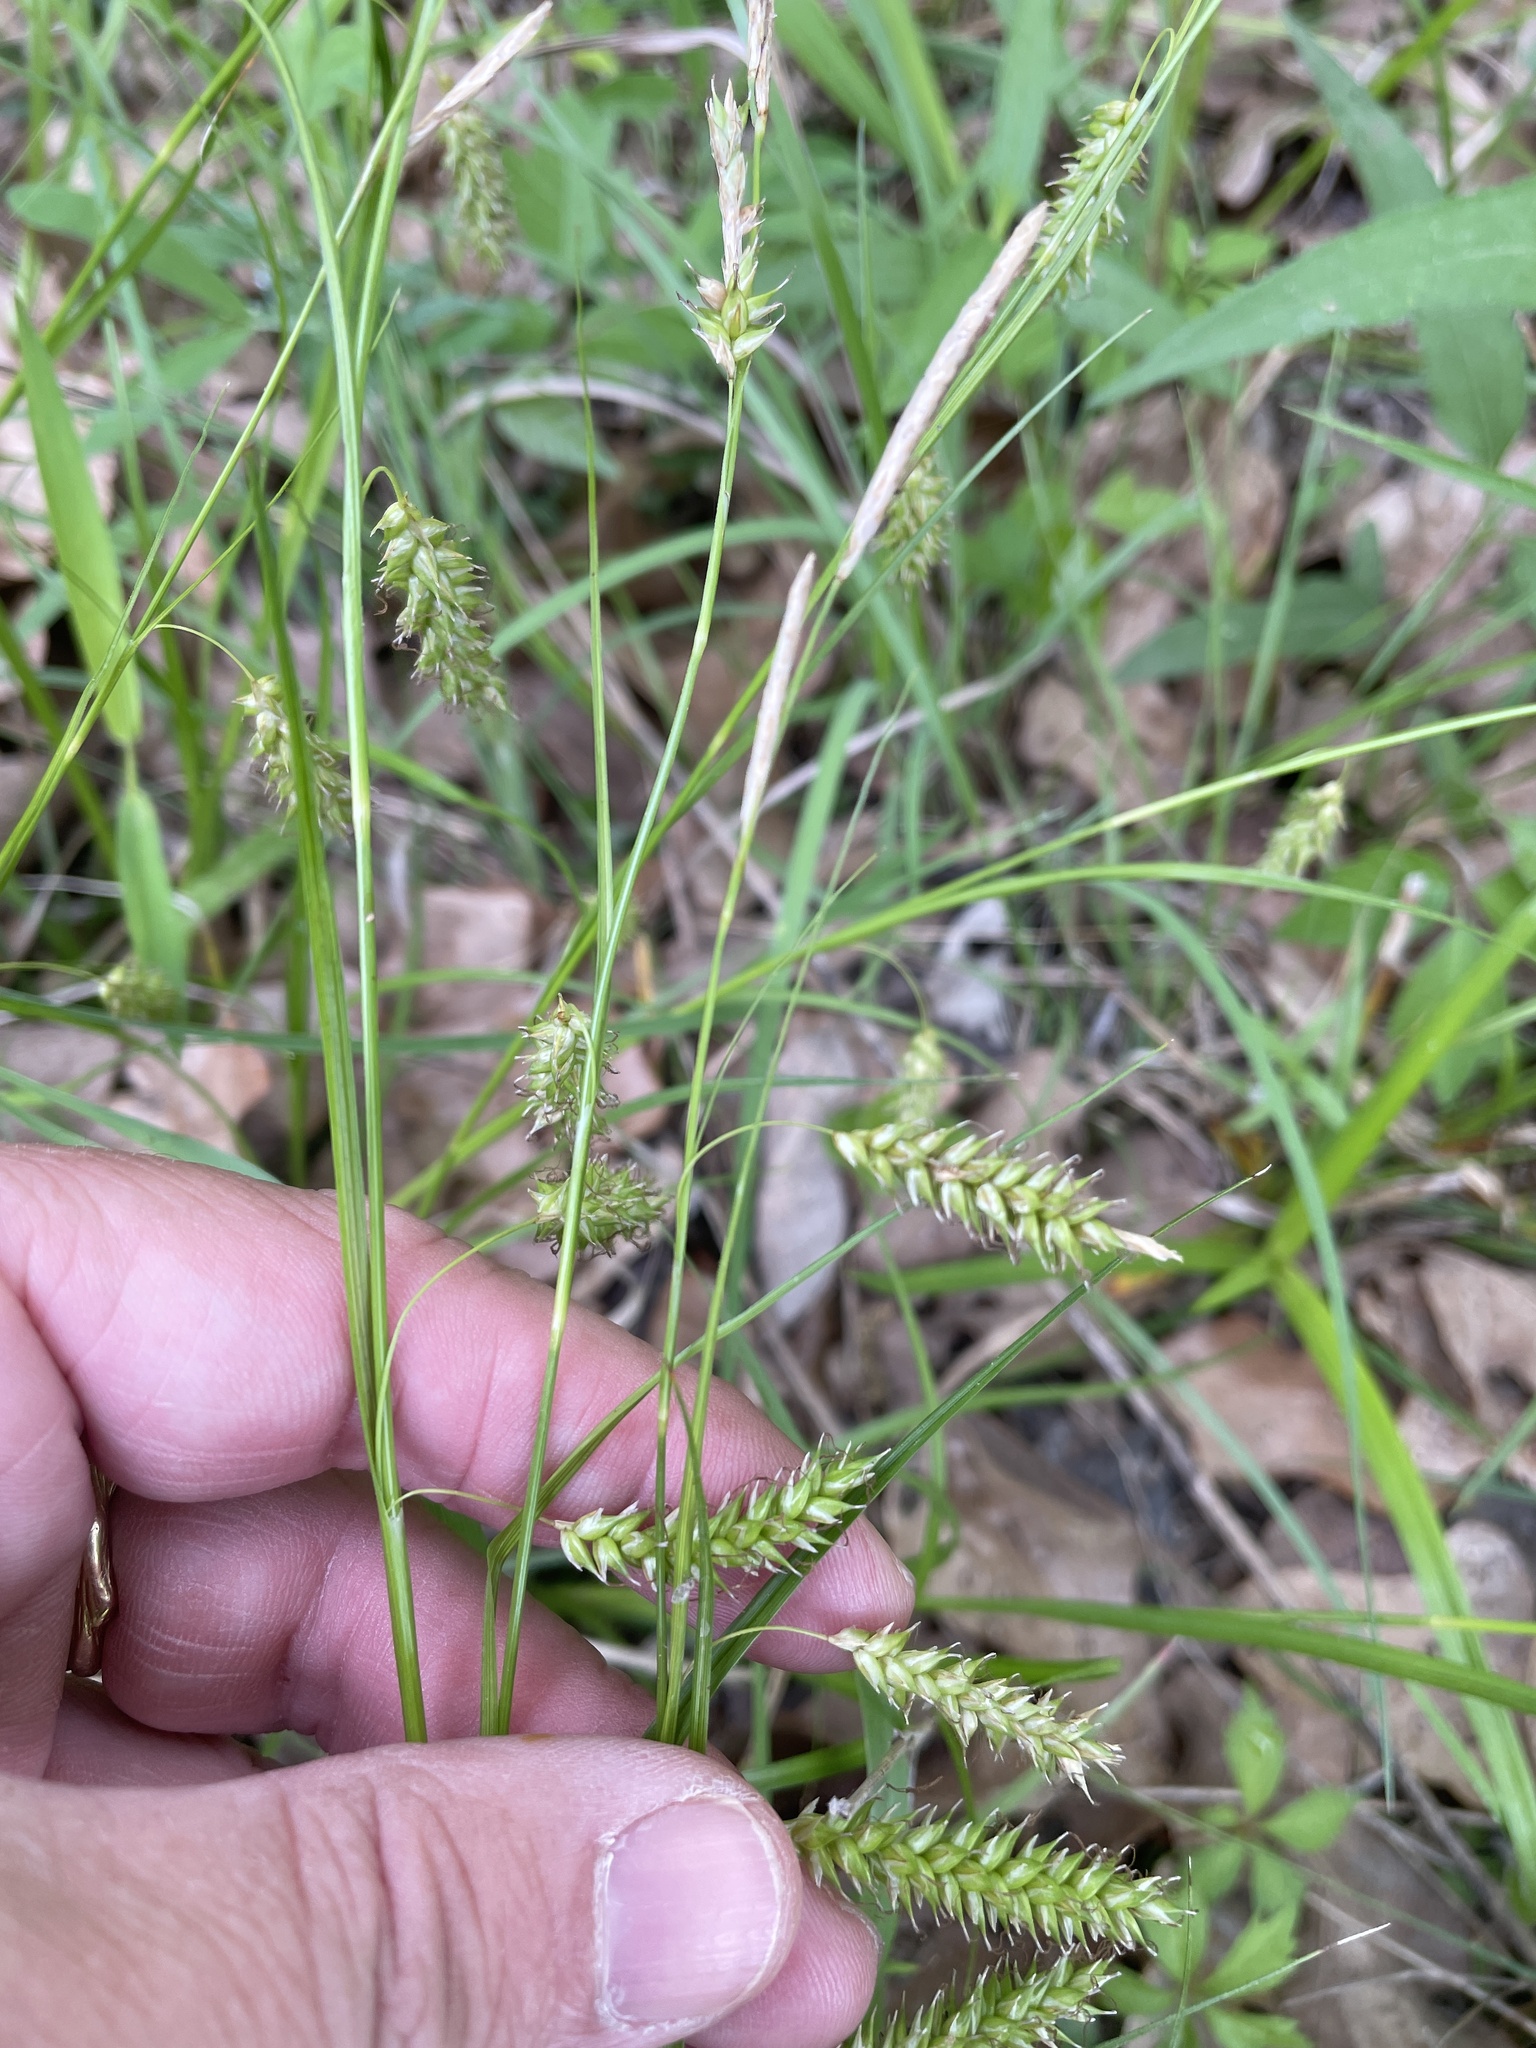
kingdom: Plantae
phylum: Tracheophyta
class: Liliopsida
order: Poales
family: Cyperaceae
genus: Carex
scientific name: Carex cherokeensis
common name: Cherokee sedge
